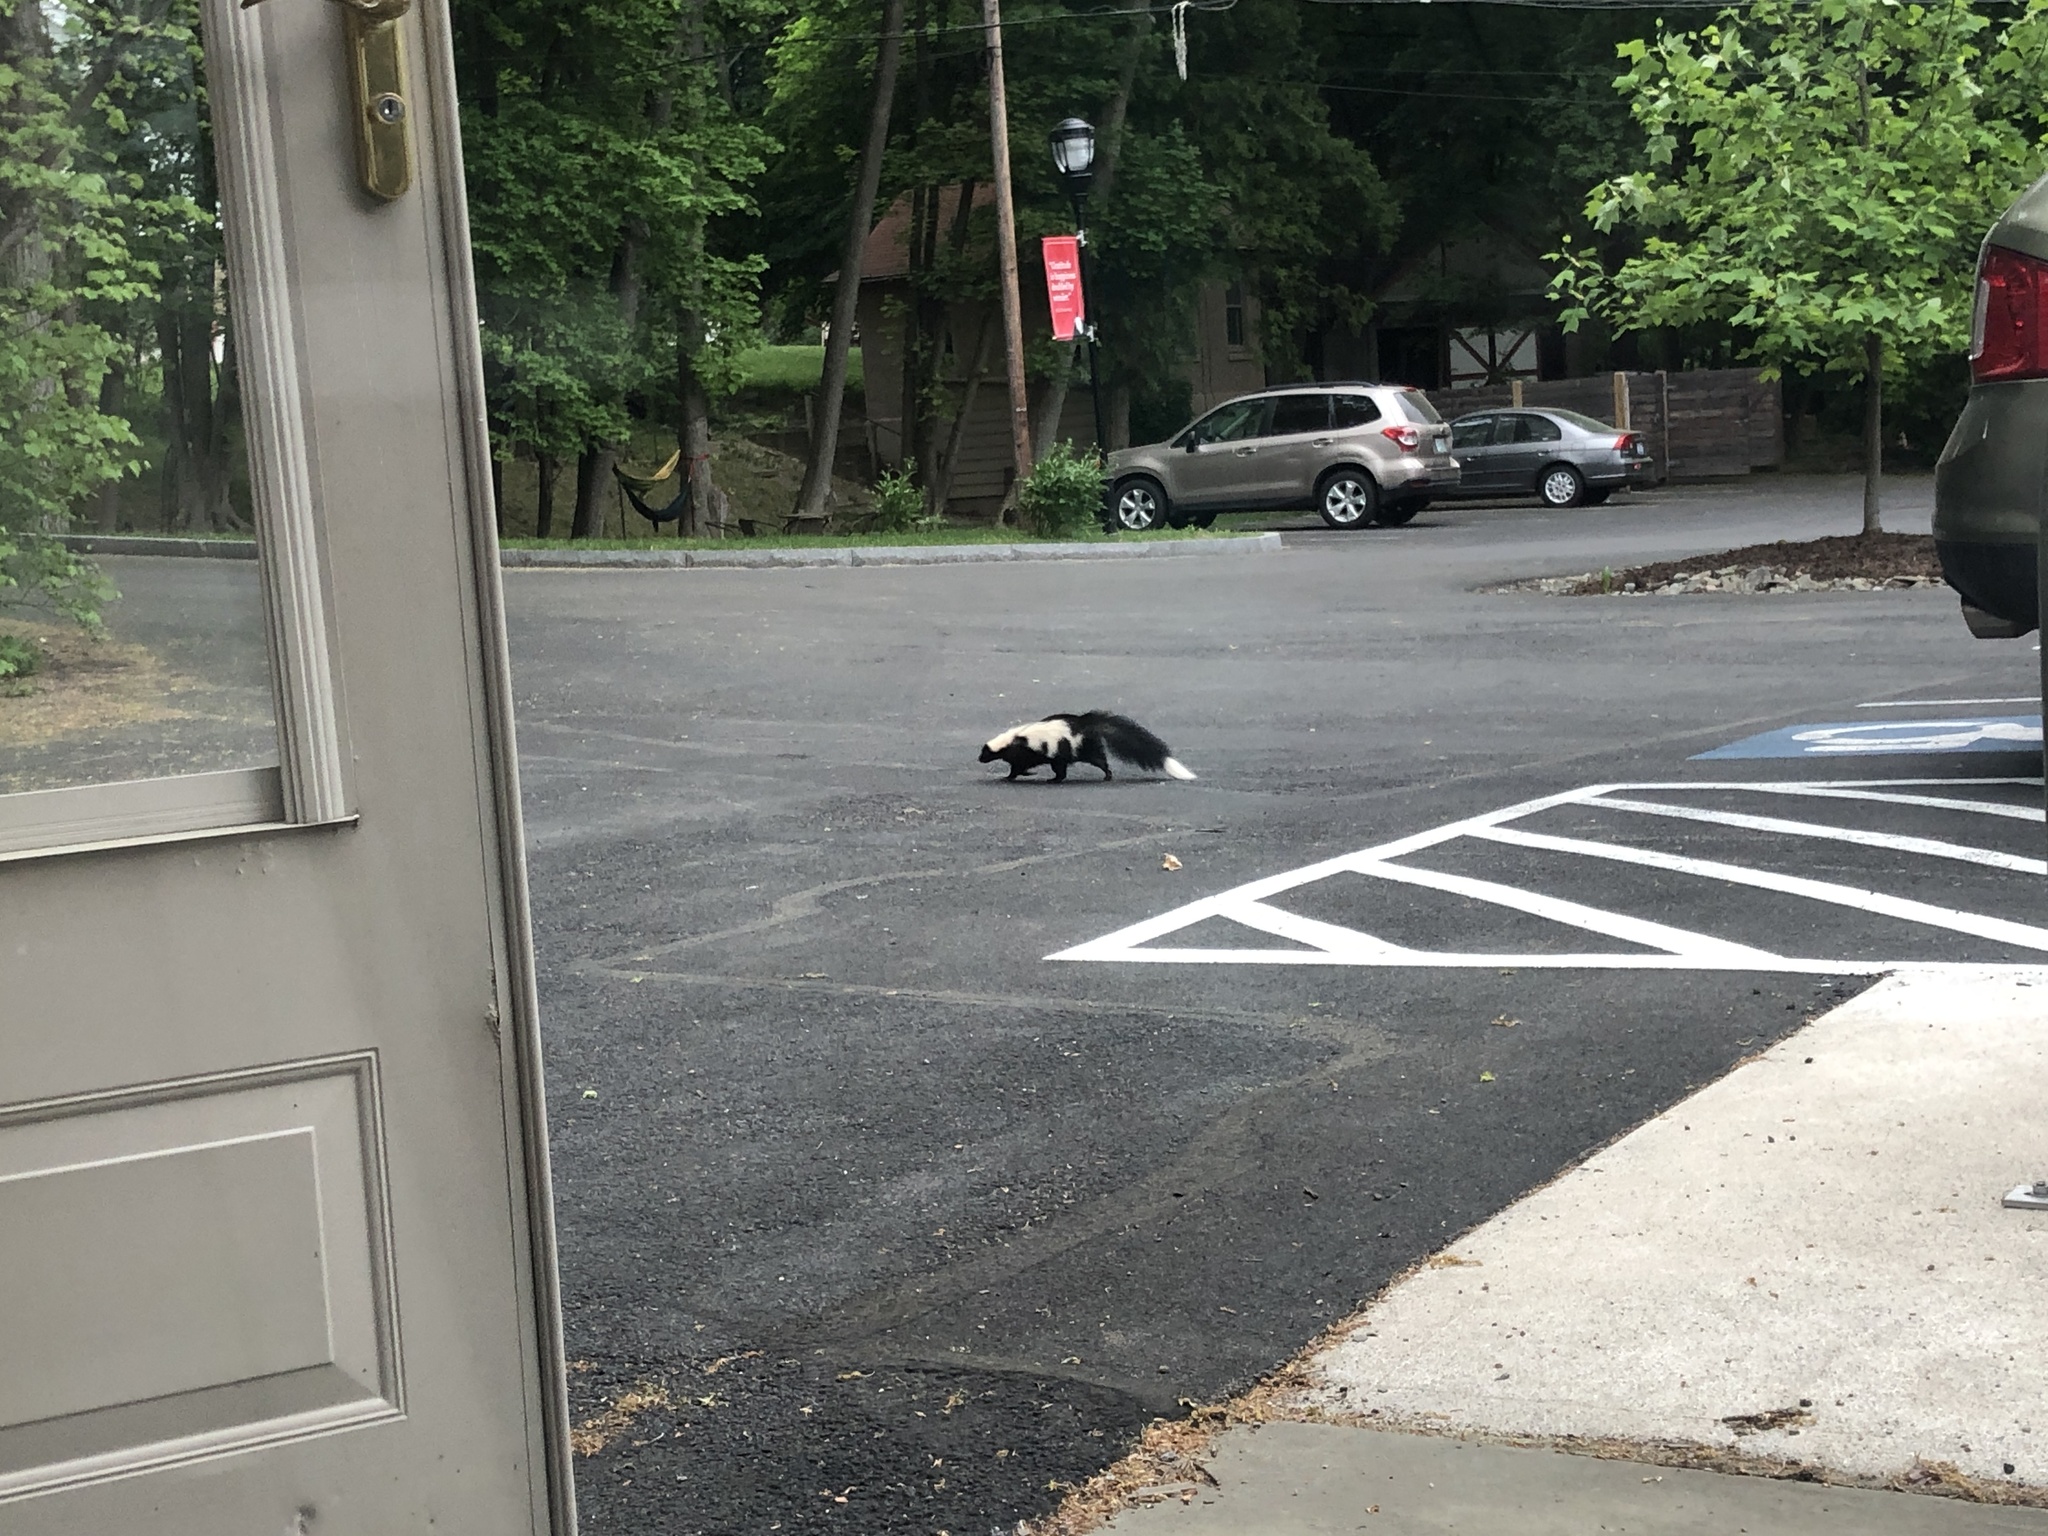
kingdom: Animalia
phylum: Chordata
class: Mammalia
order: Carnivora
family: Mephitidae
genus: Mephitis
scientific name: Mephitis mephitis
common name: Striped skunk
